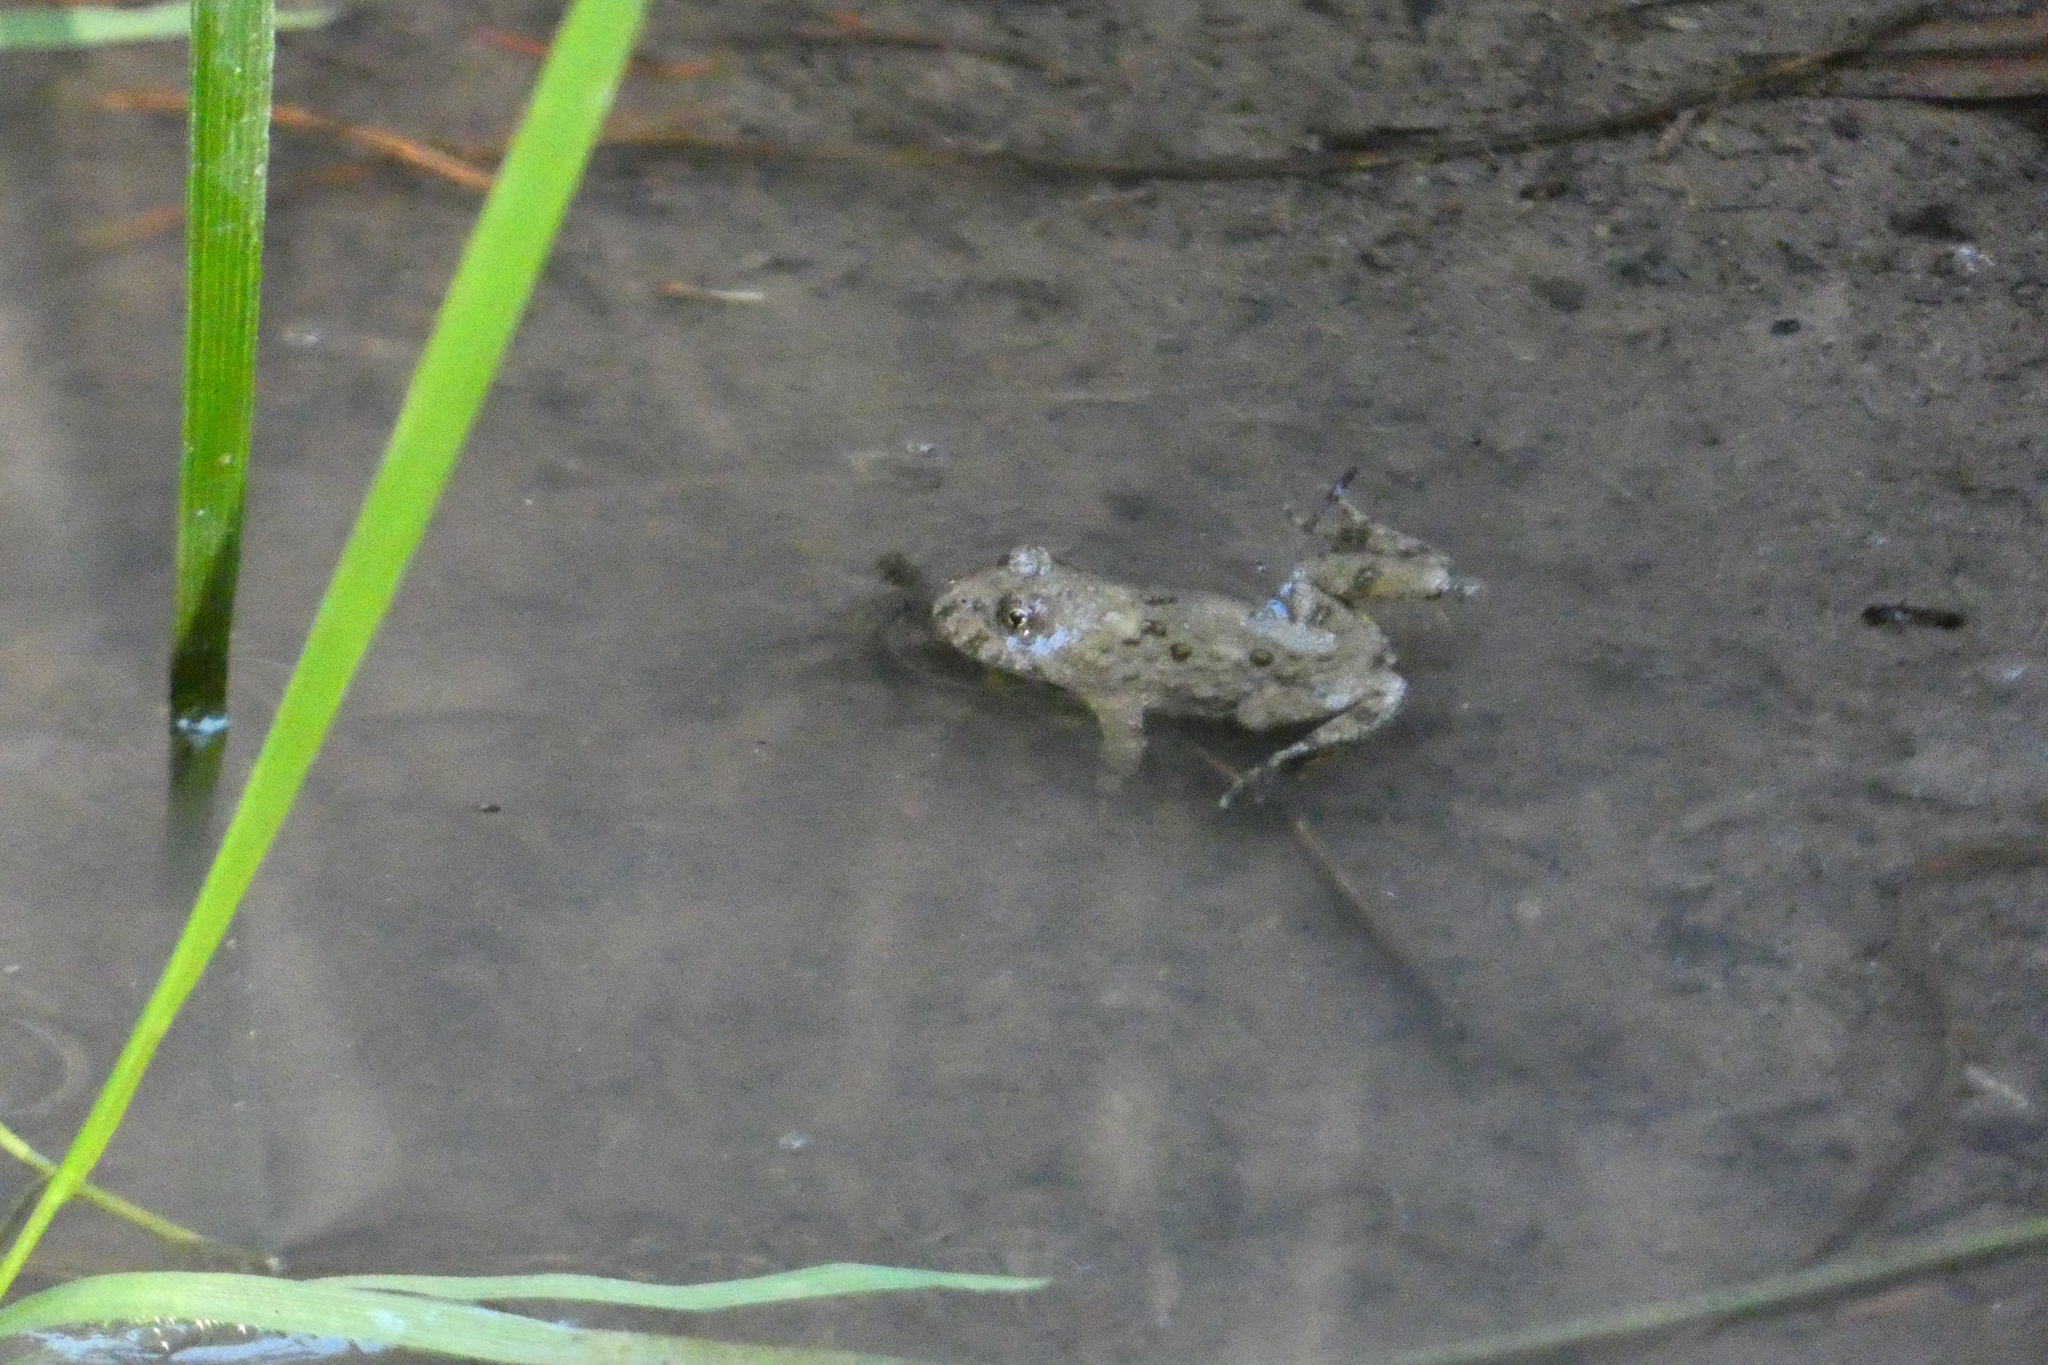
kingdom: Animalia
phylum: Chordata
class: Amphibia
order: Anura
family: Bombinatoridae
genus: Bombina
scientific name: Bombina variegata
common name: Yellow-bellied toad
